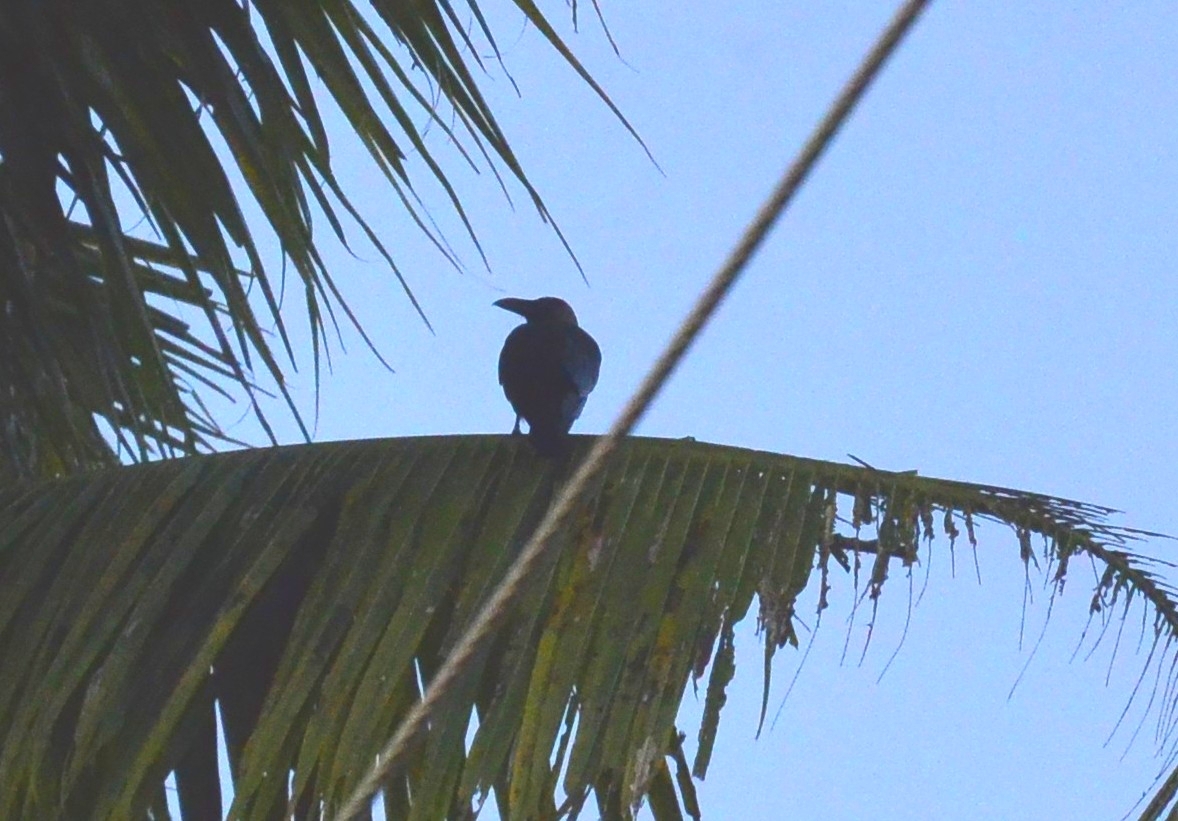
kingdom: Animalia
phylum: Chordata
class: Aves
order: Passeriformes
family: Corvidae
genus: Corvus
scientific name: Corvus splendens
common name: House crow
